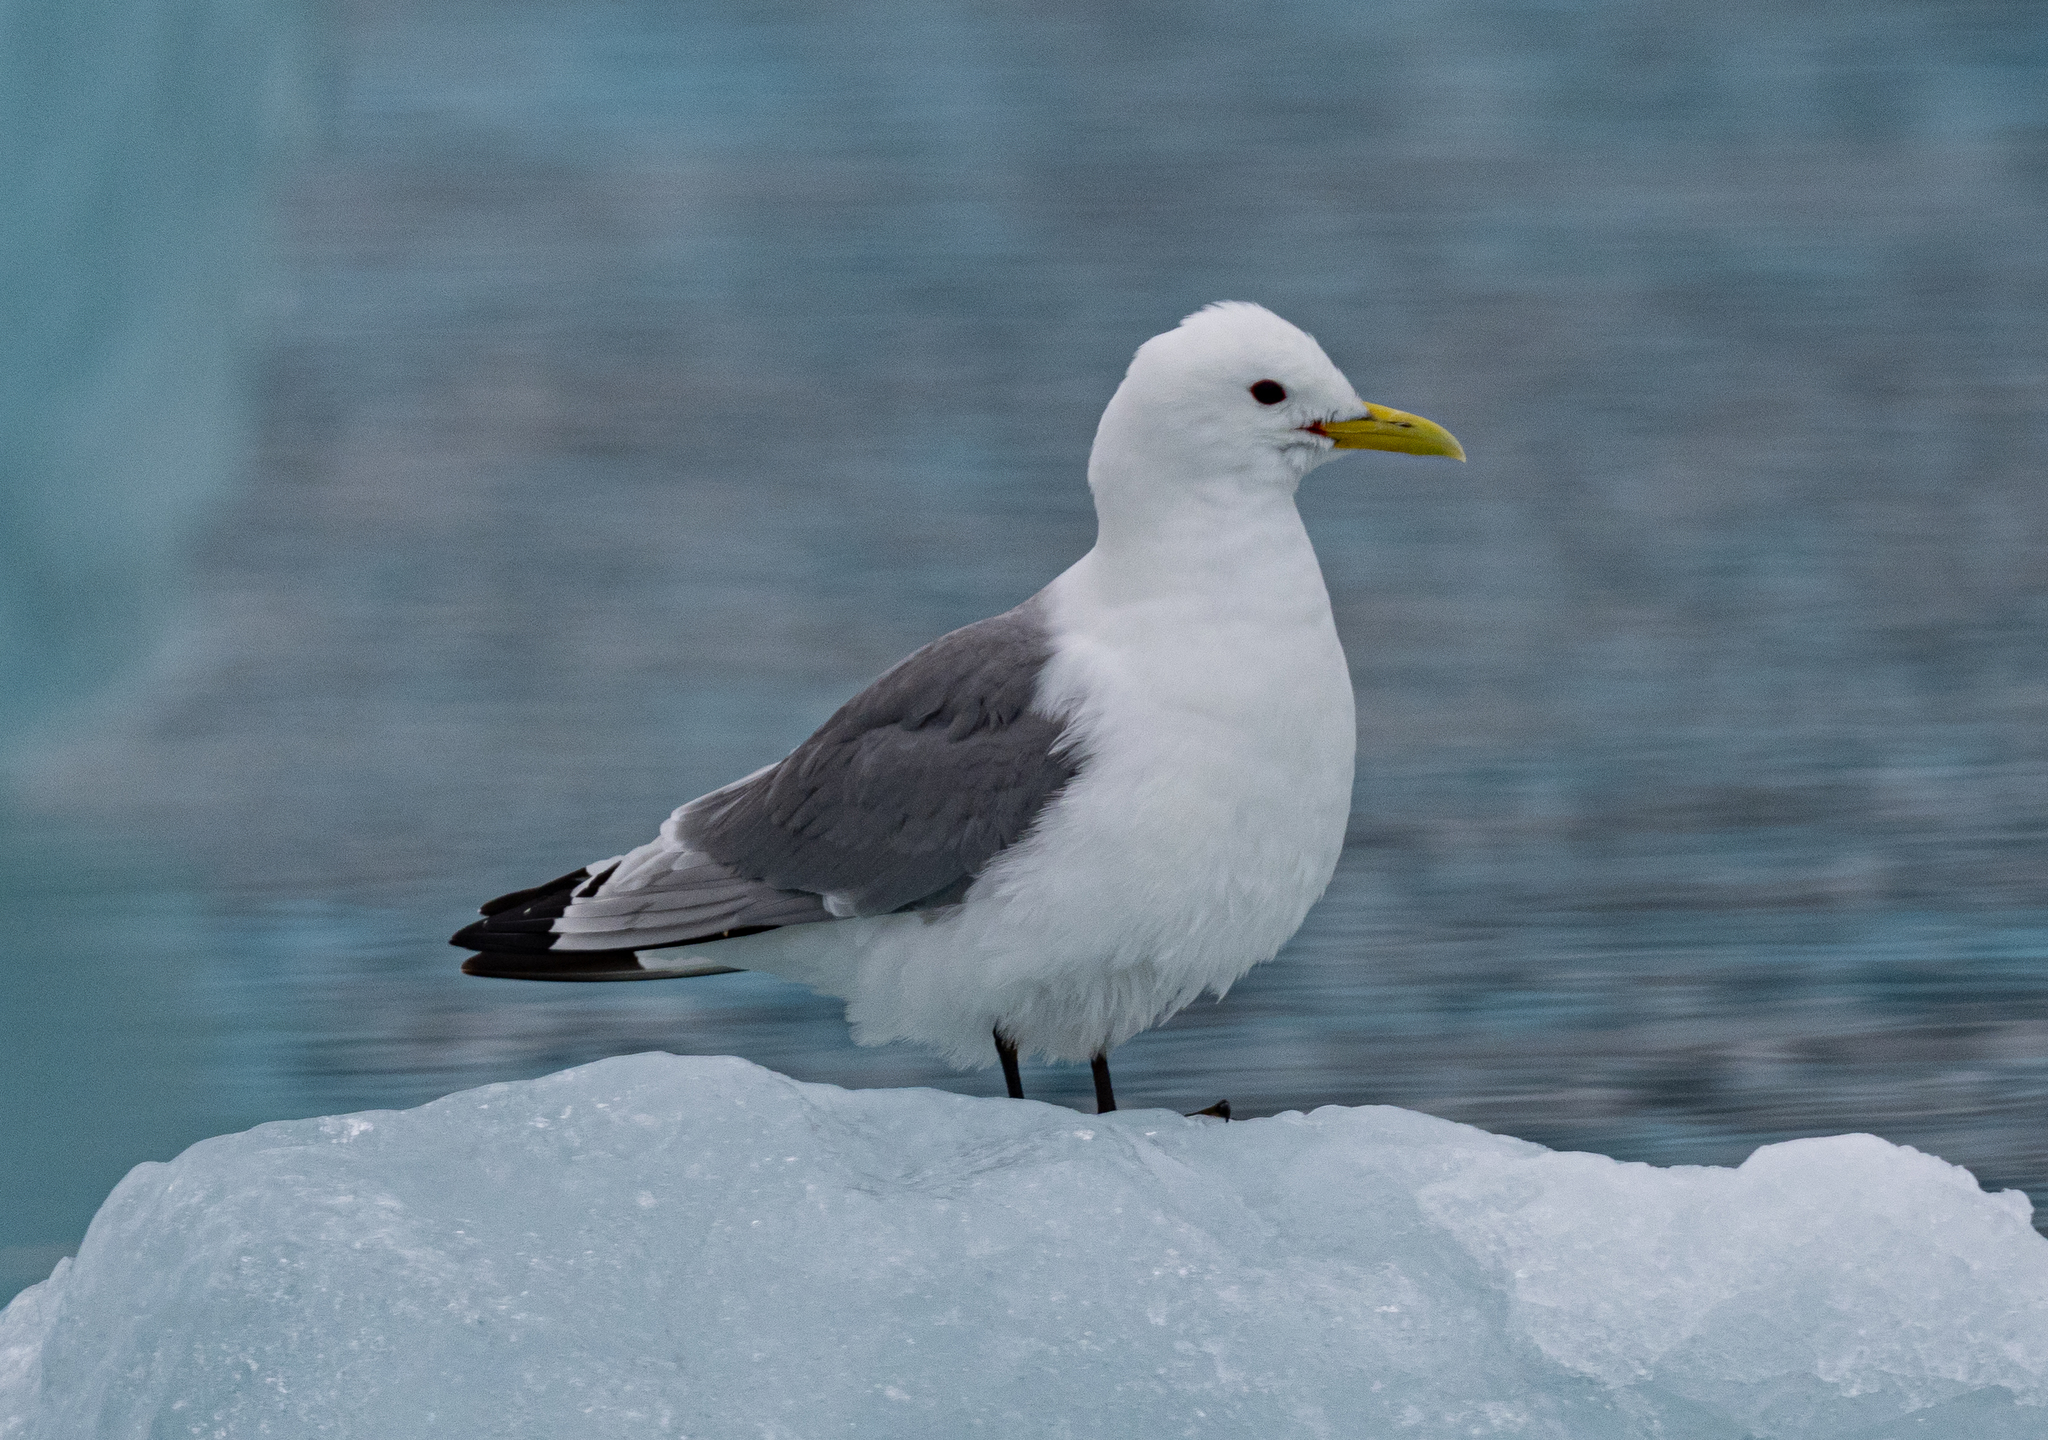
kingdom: Animalia
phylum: Chordata
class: Aves
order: Charadriiformes
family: Laridae
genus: Rissa
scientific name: Rissa tridactyla
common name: Black-legged kittiwake
